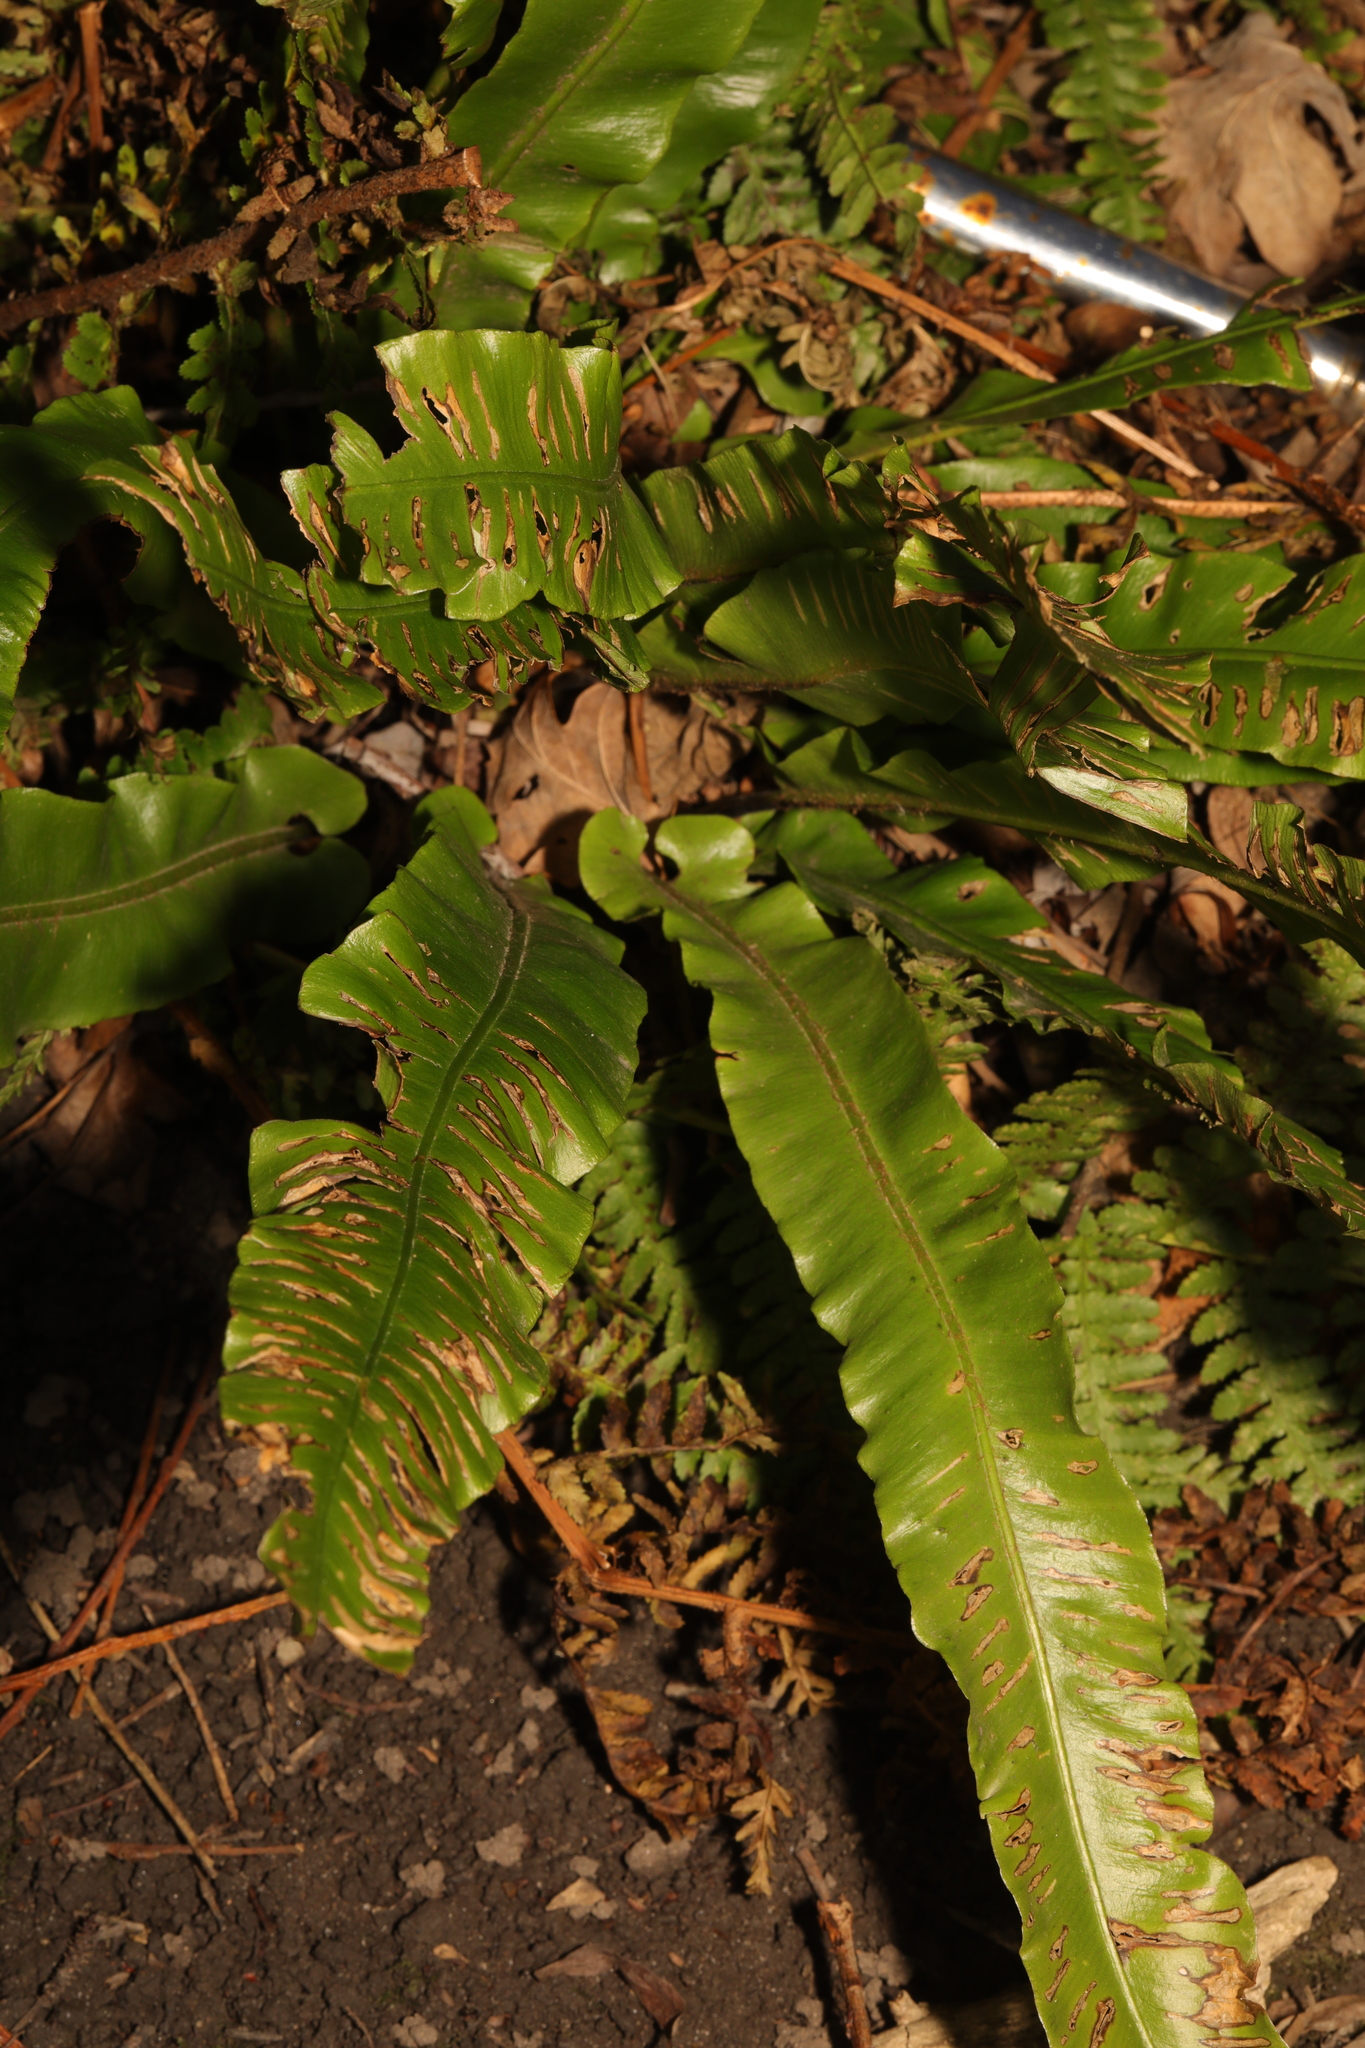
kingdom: Plantae
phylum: Tracheophyta
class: Polypodiopsida
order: Polypodiales
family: Aspleniaceae
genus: Asplenium
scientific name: Asplenium scolopendrium
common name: Hart's-tongue fern
